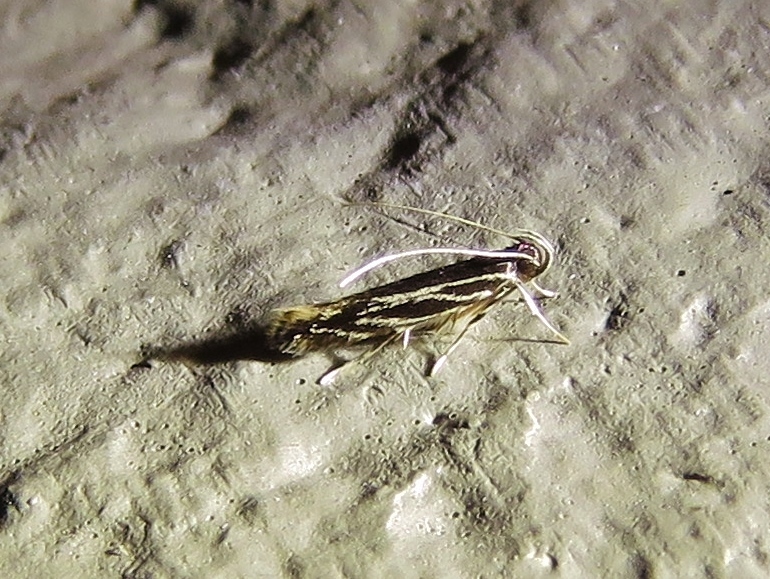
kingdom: Animalia
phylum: Arthropoda
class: Insecta
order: Lepidoptera
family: Cosmopterigidae
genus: Eralea
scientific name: Eralea albalineella
